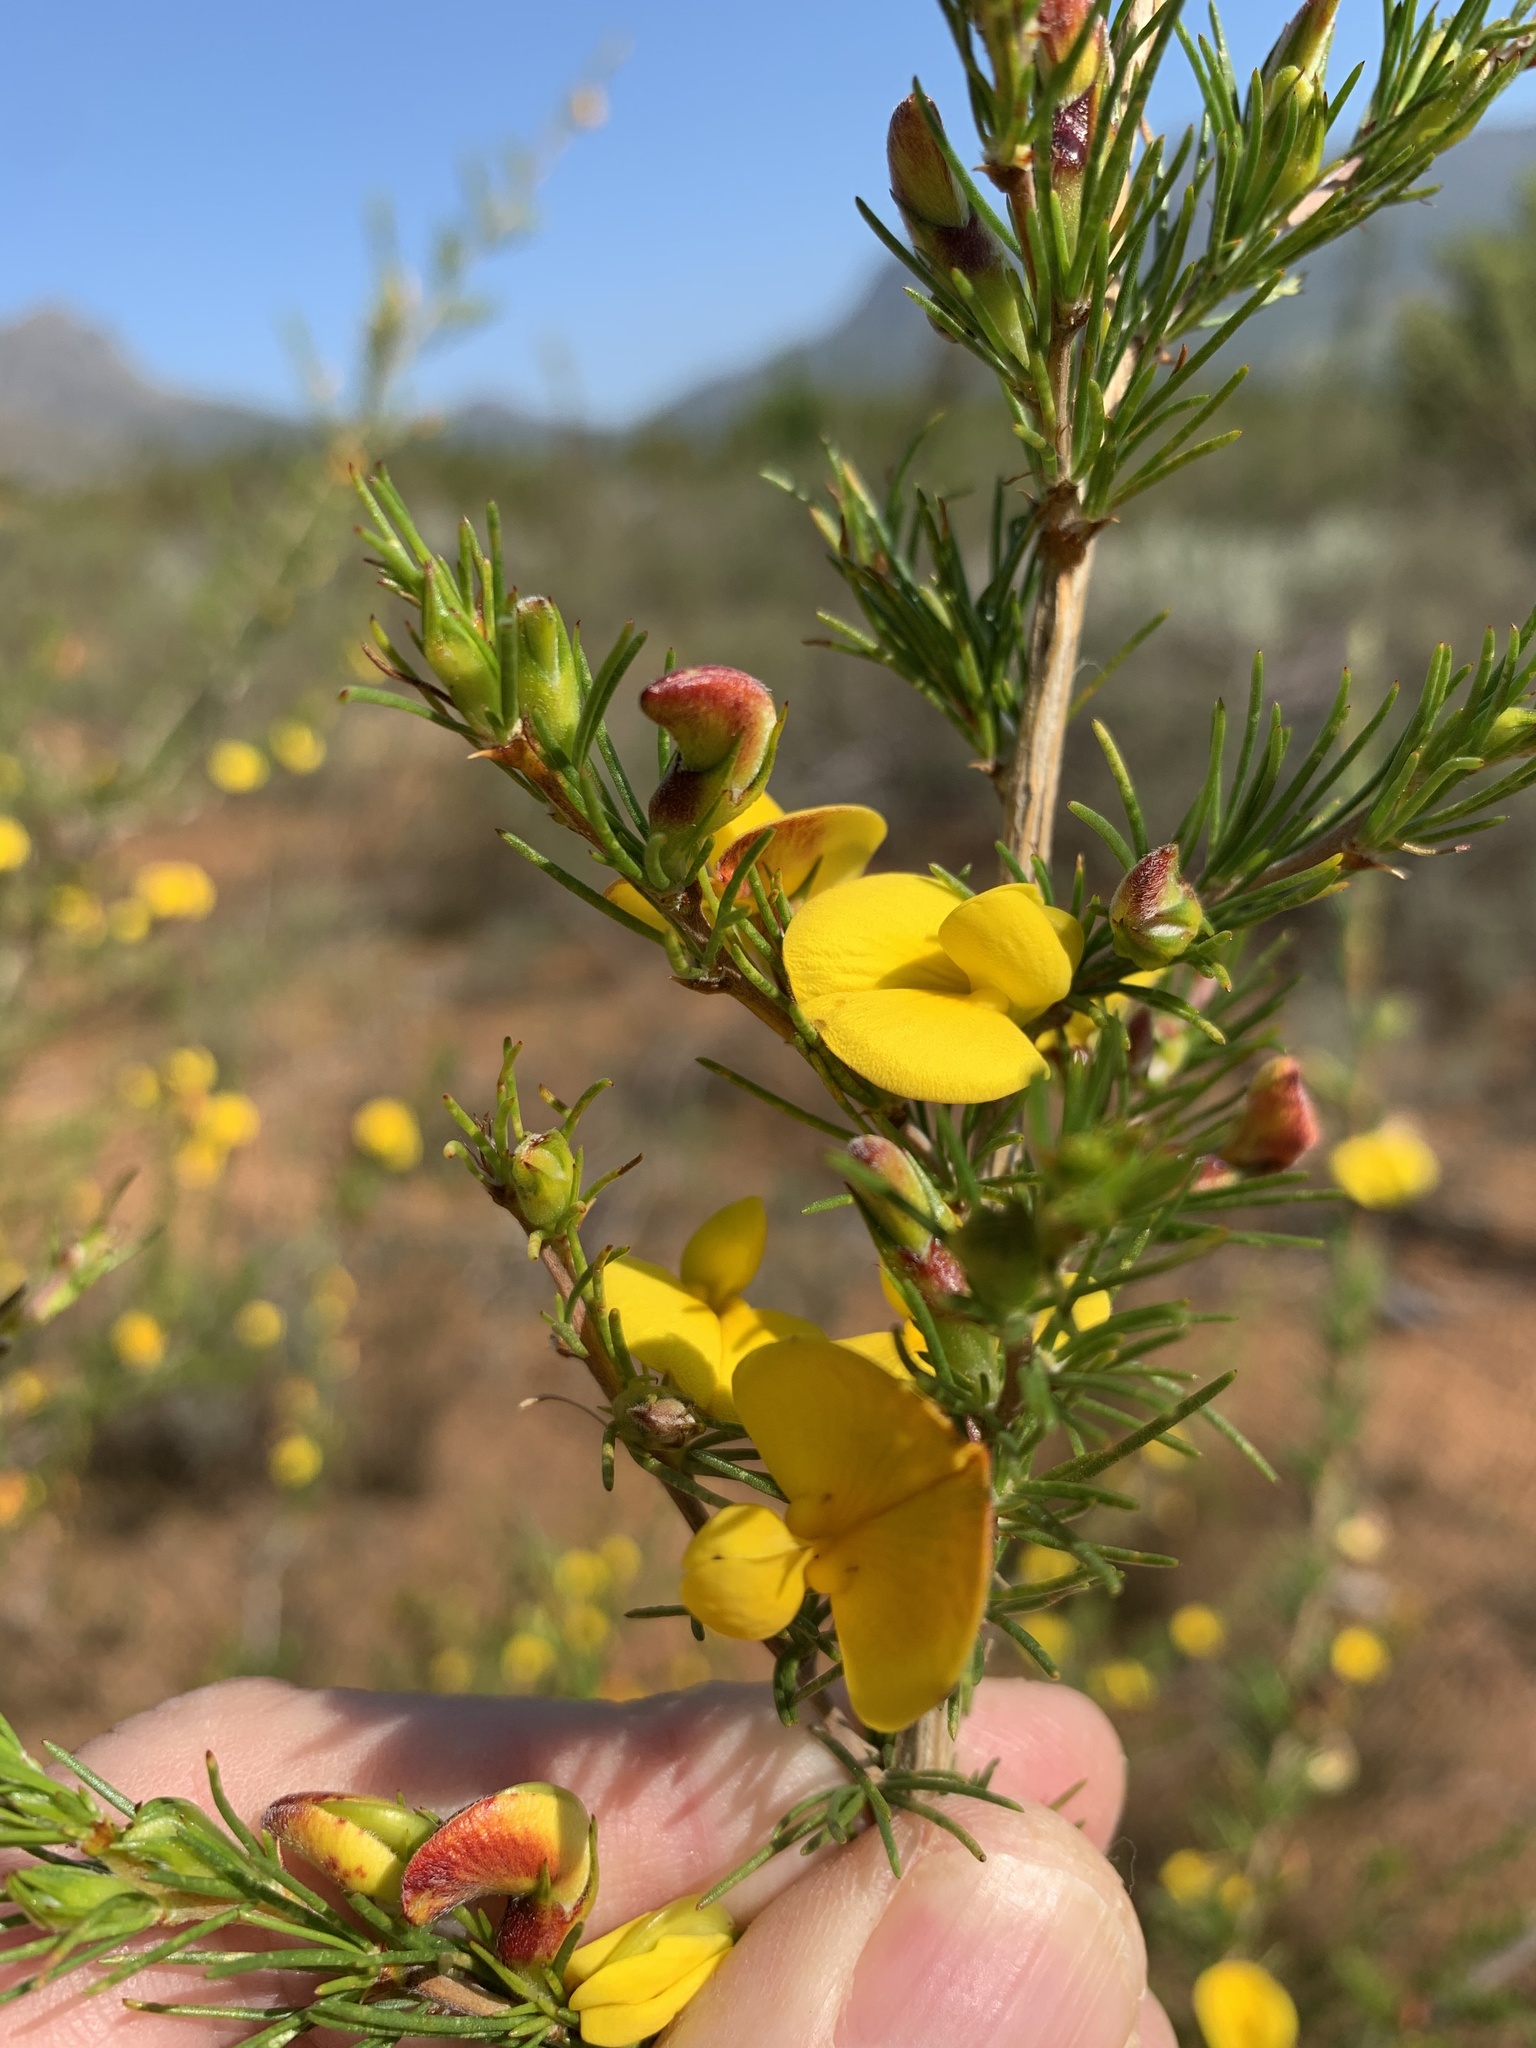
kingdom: Plantae
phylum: Tracheophyta
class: Magnoliopsida
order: Fabales
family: Fabaceae
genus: Aspalathus
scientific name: Aspalathus uniflora
